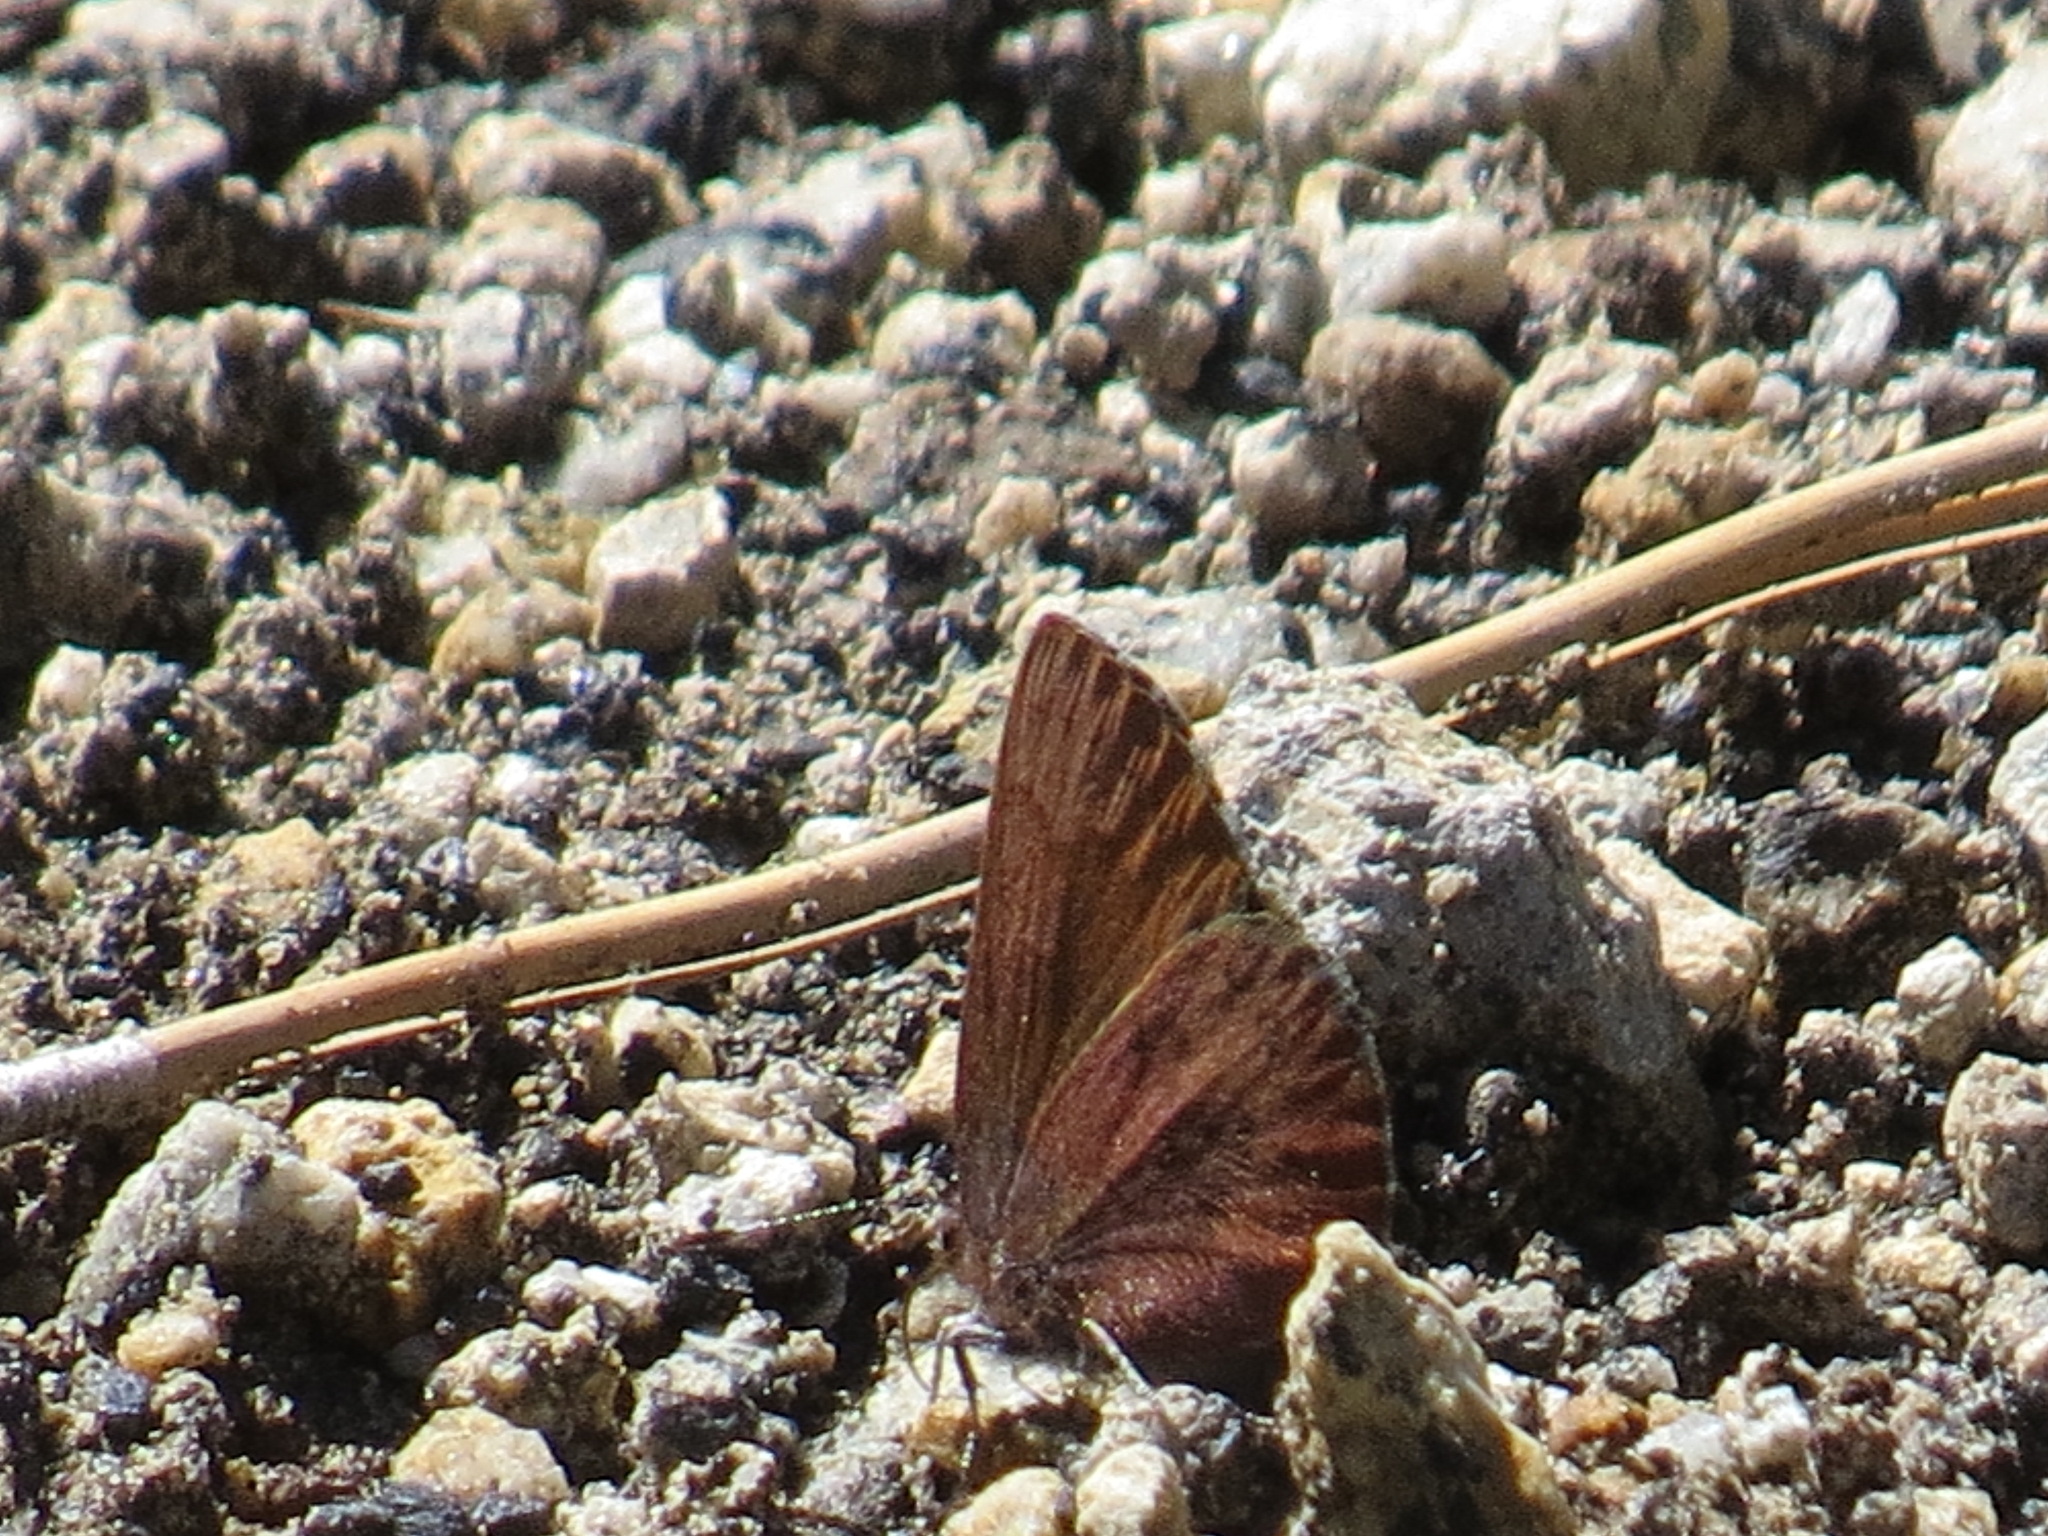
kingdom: Animalia
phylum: Arthropoda
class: Insecta
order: Lepidoptera
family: Lycaenidae
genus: Incisalia
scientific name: Incisalia irioides
